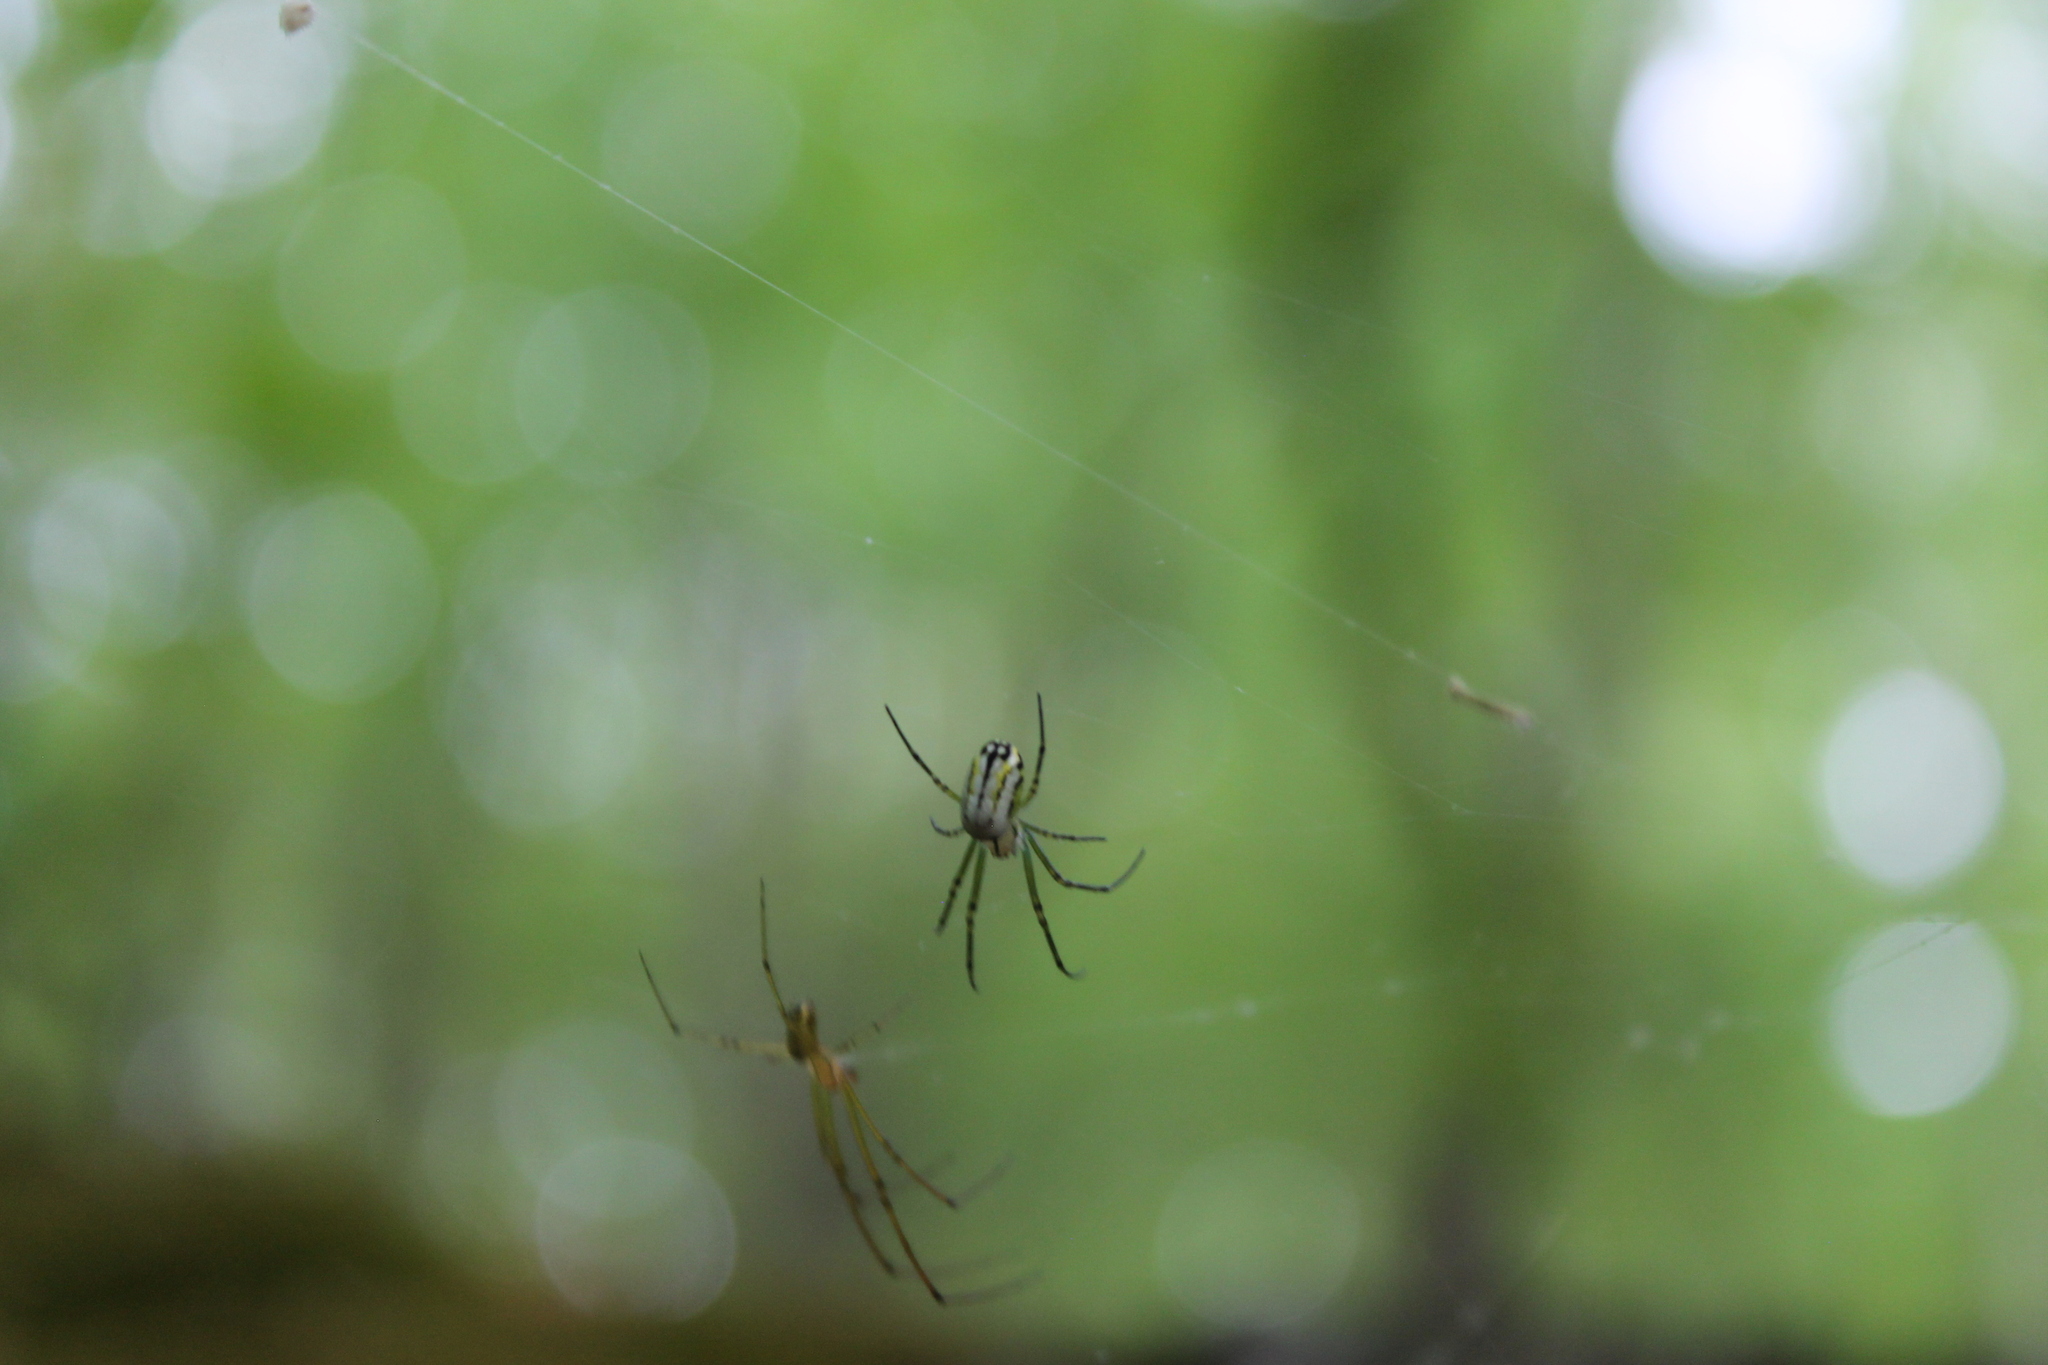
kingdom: Animalia
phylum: Arthropoda
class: Arachnida
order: Araneae
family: Tetragnathidae
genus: Leucauge
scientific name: Leucauge venusta
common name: Longjawed orb weavers
